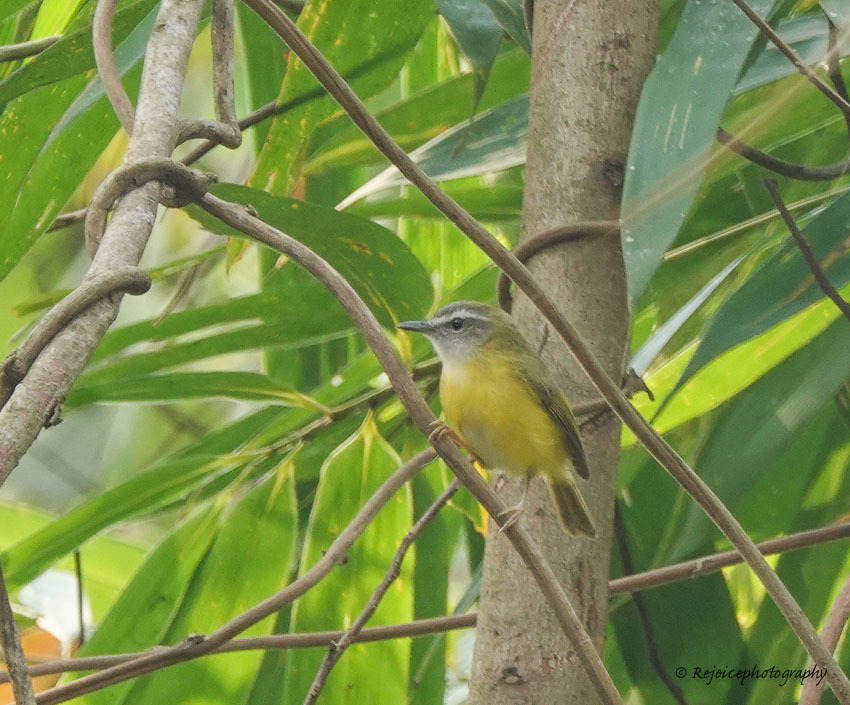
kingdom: Animalia
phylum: Chordata
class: Aves
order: Passeriformes
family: Cettiidae
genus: Abroscopus
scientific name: Abroscopus superciliaris
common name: Yellow-bellied warbler
